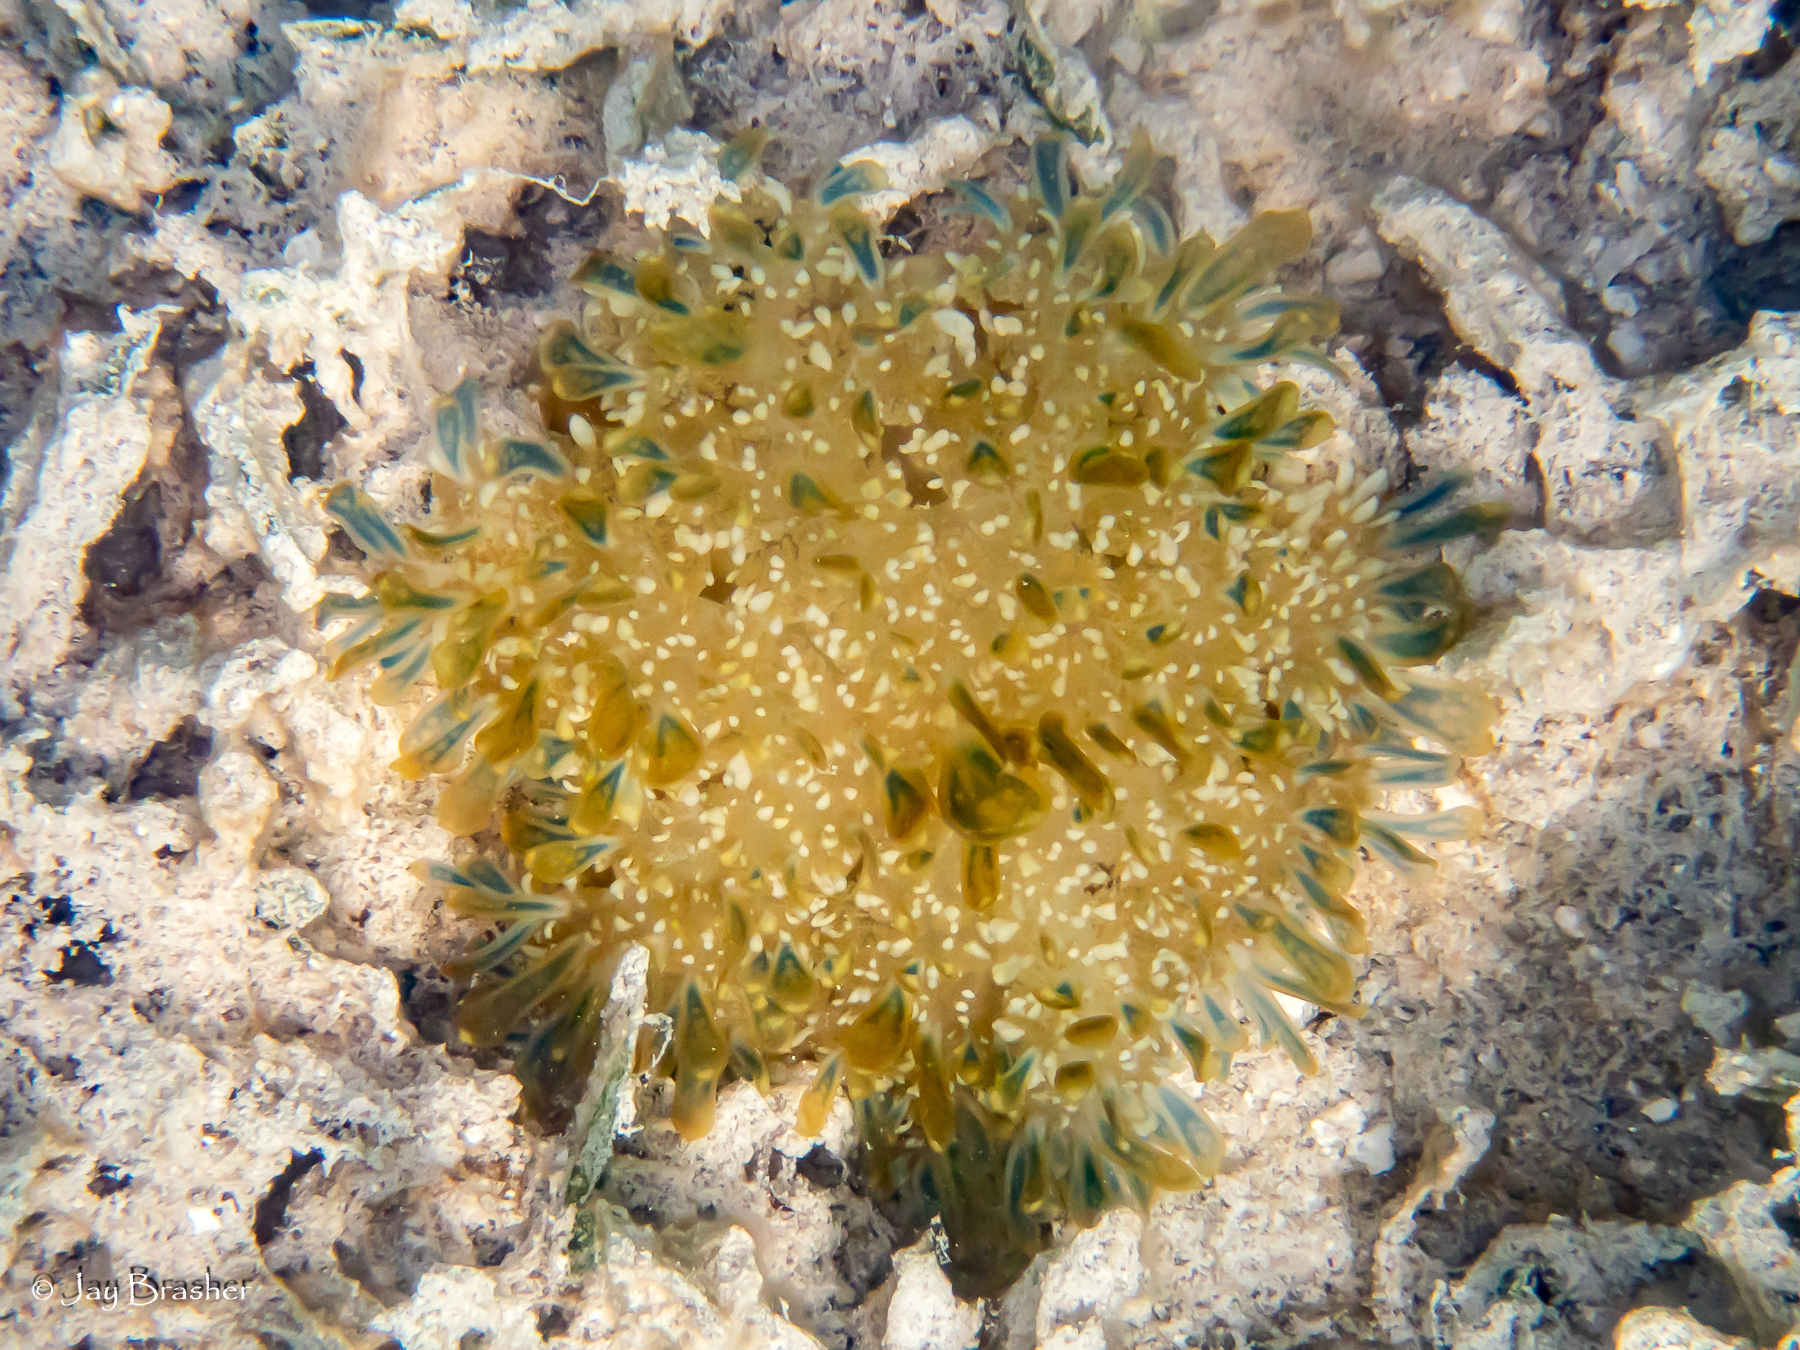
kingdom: Animalia
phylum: Cnidaria
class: Scyphozoa
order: Rhizostomeae
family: Cassiopeidae
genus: Cassiopea
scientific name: Cassiopea andromeda
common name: Upside-down jellyfish
